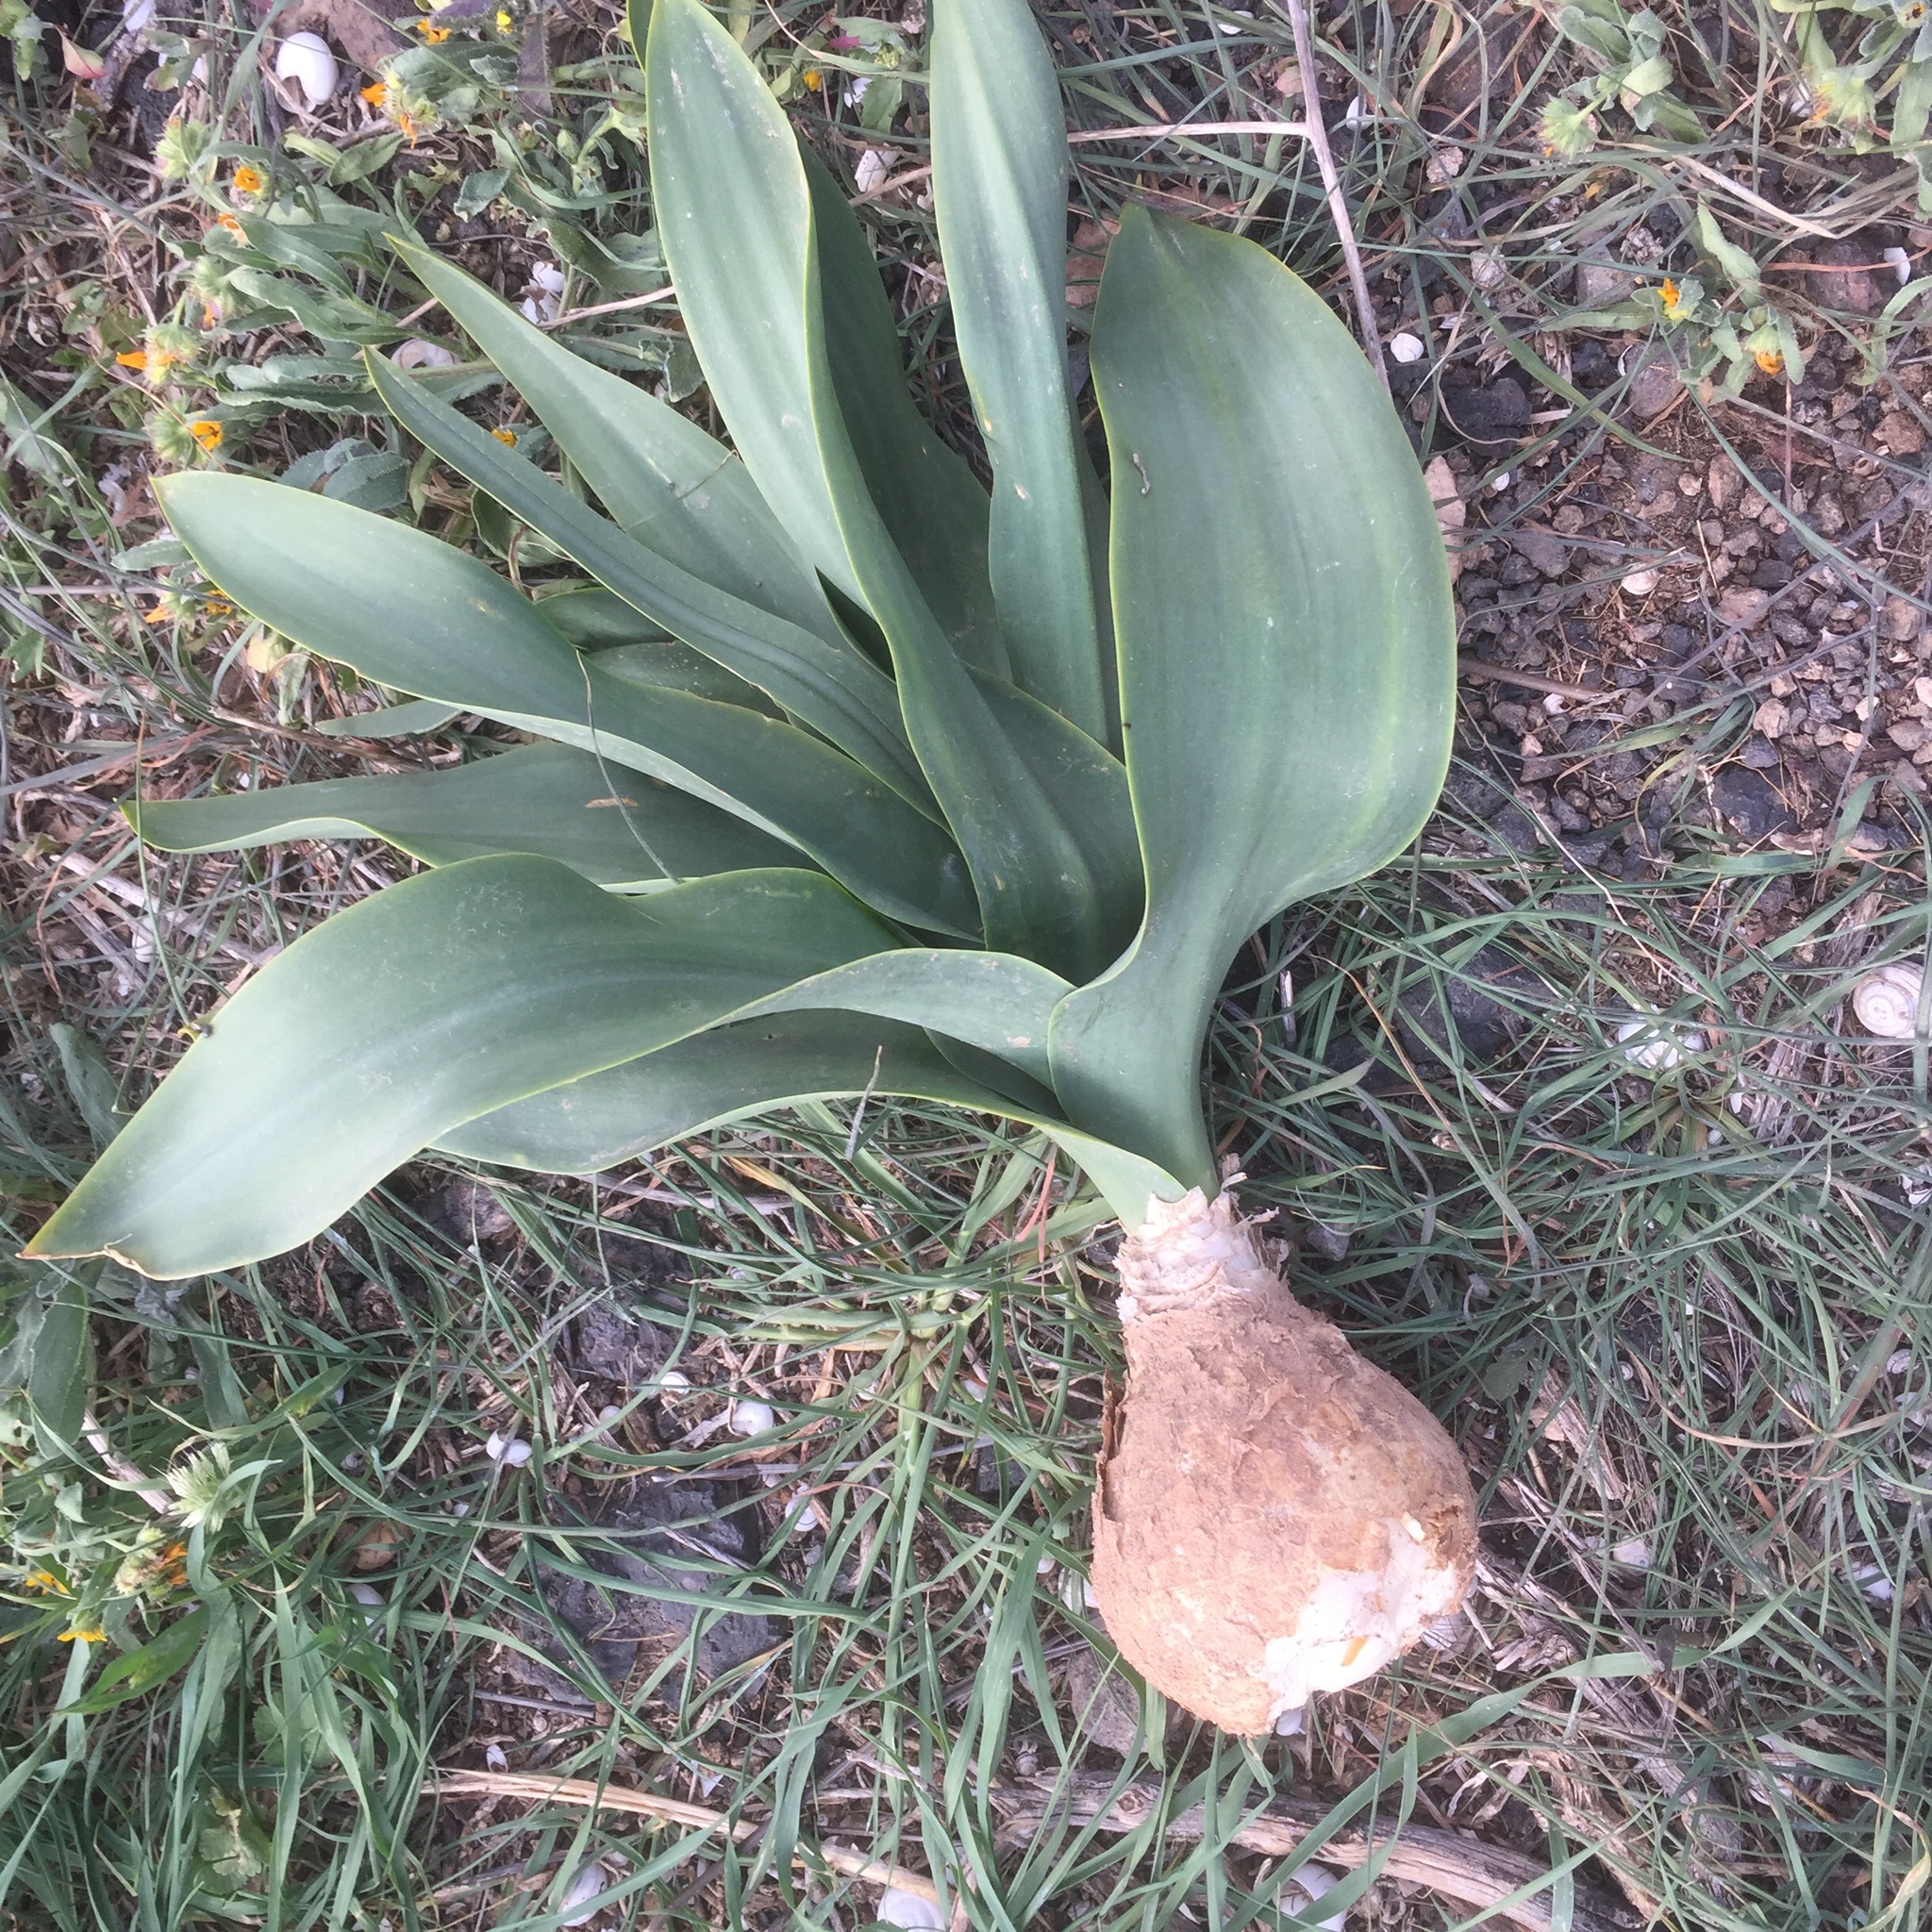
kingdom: Plantae
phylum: Tracheophyta
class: Liliopsida
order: Asparagales
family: Asparagaceae
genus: Drimia
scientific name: Drimia maritima
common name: Maritime squill
